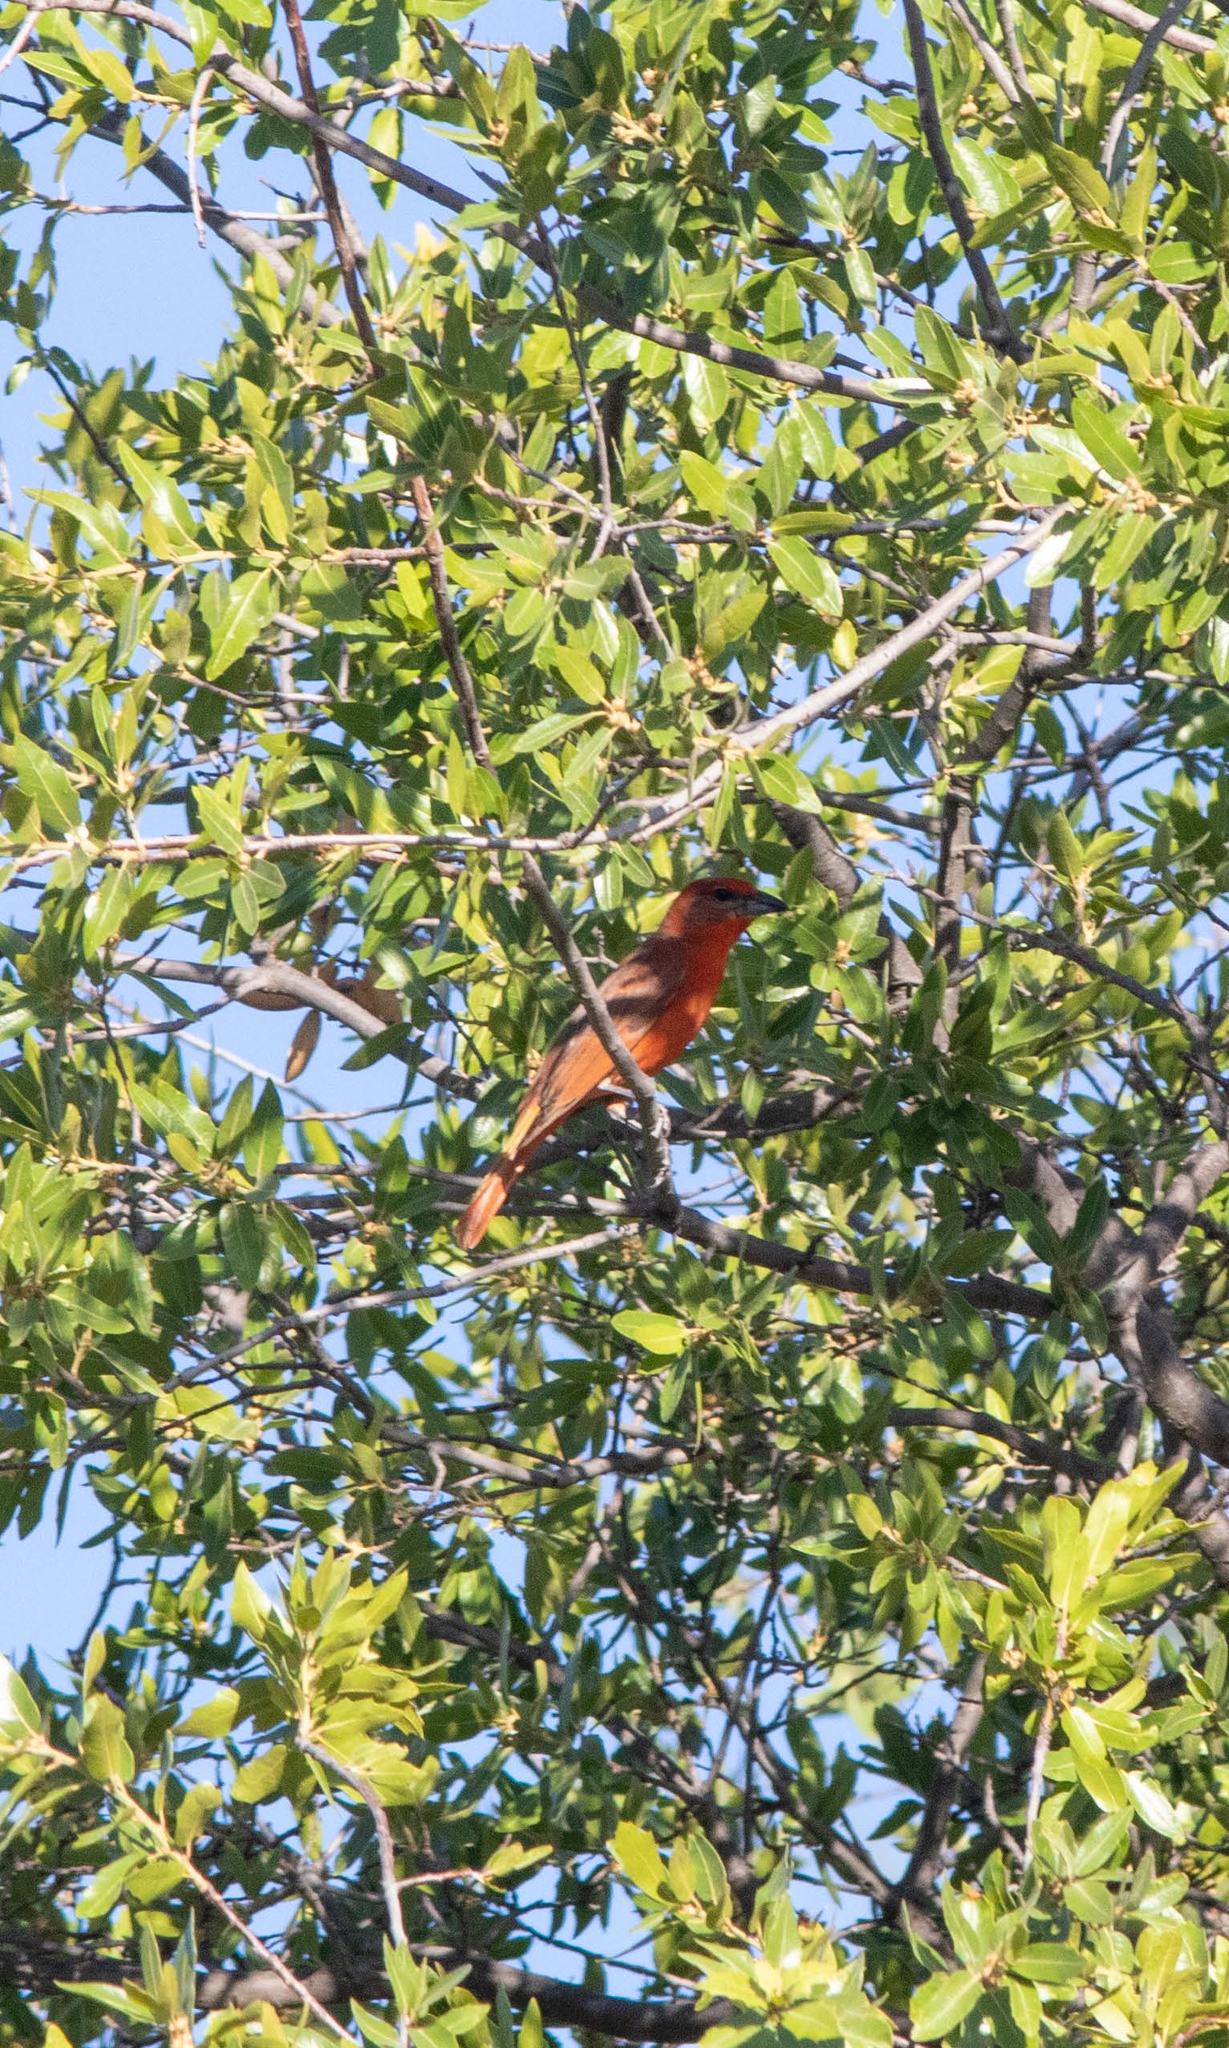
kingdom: Animalia
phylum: Chordata
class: Aves
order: Passeriformes
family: Cardinalidae
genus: Piranga
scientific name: Piranga flava
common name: Red tanager
